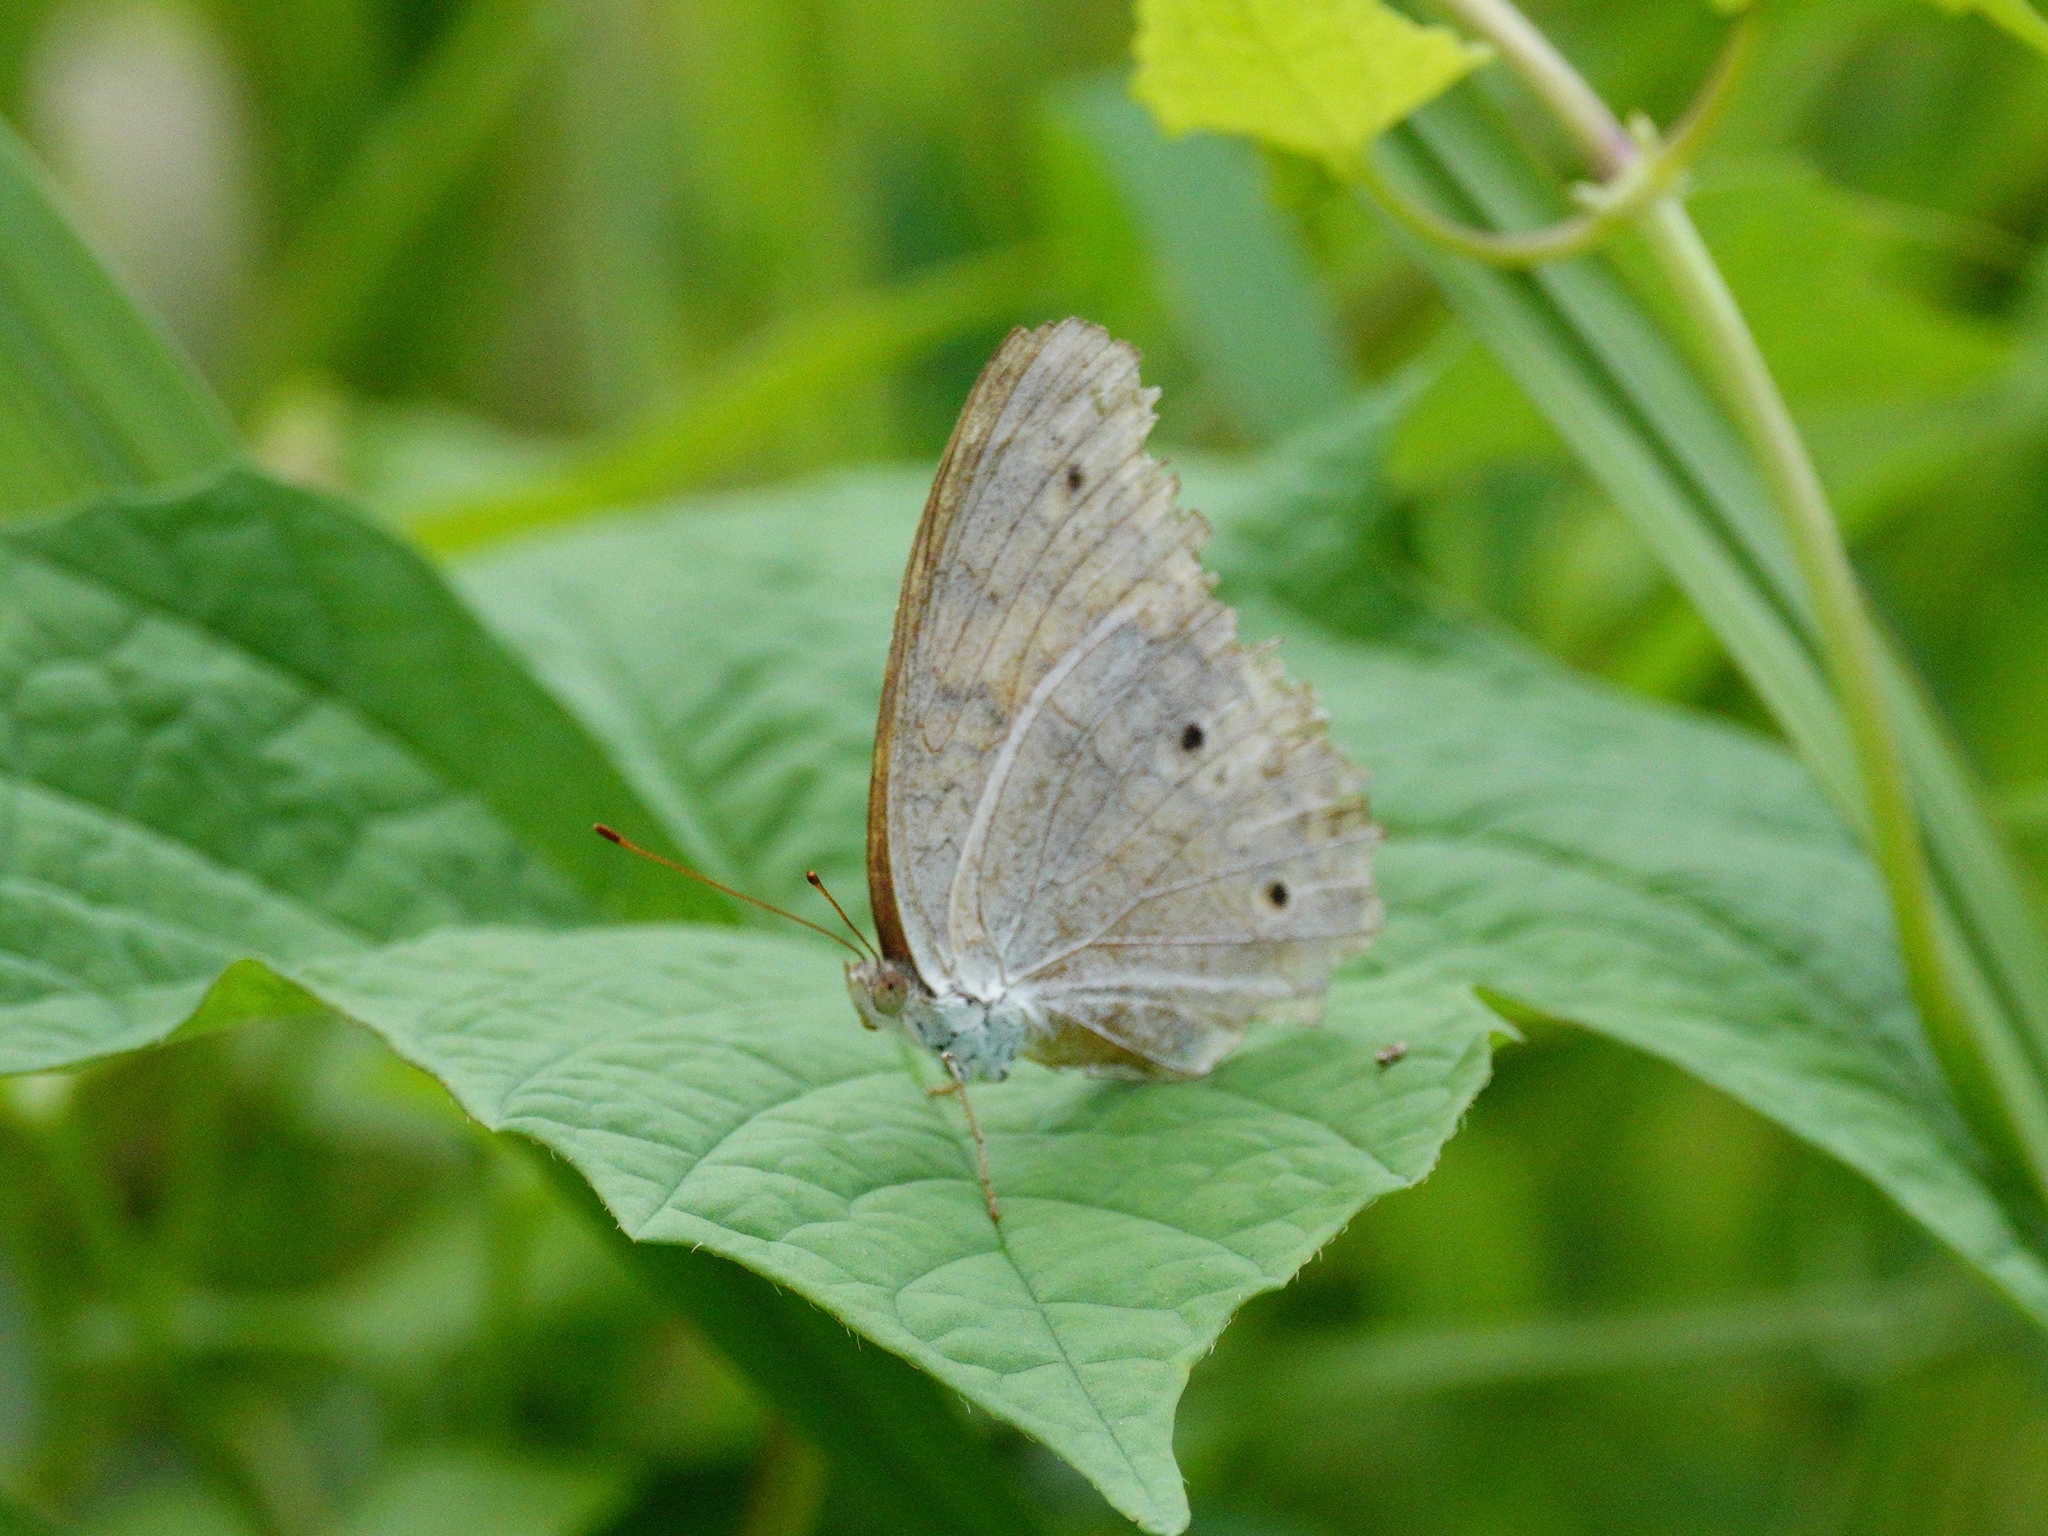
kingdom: Animalia
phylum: Arthropoda
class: Insecta
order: Lepidoptera
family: Nymphalidae
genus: Junonia
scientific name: Junonia atlites
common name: Grey pansy
